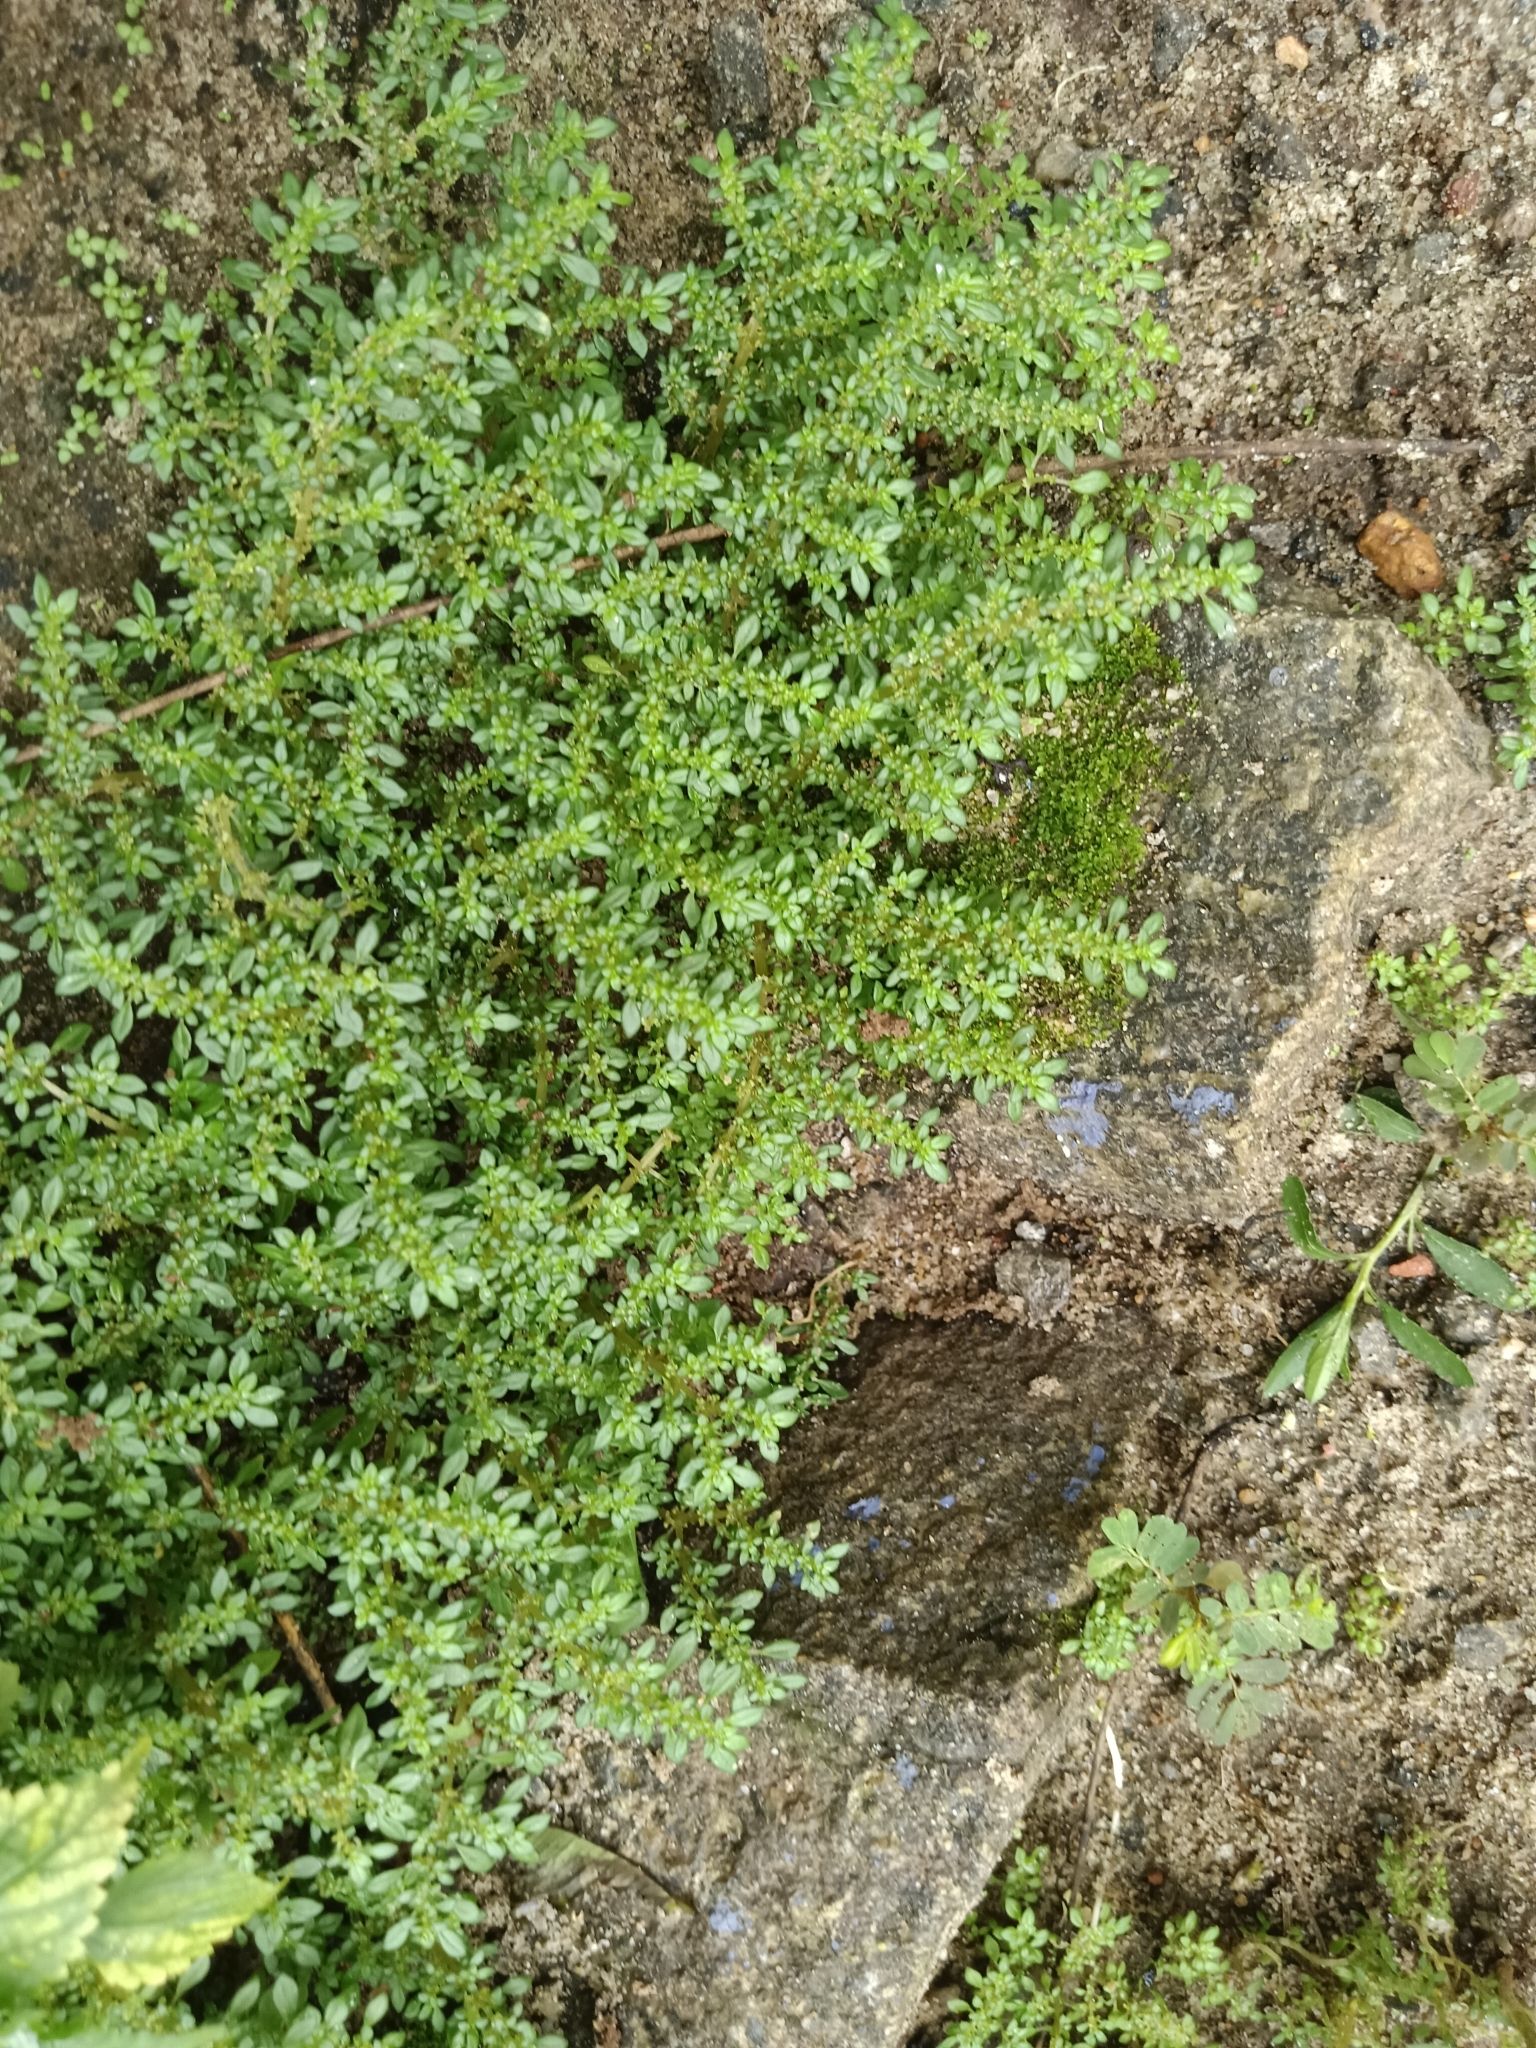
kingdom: Plantae
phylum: Tracheophyta
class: Magnoliopsida
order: Rosales
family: Urticaceae
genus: Pilea
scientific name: Pilea microphylla
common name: Artillery-plant
